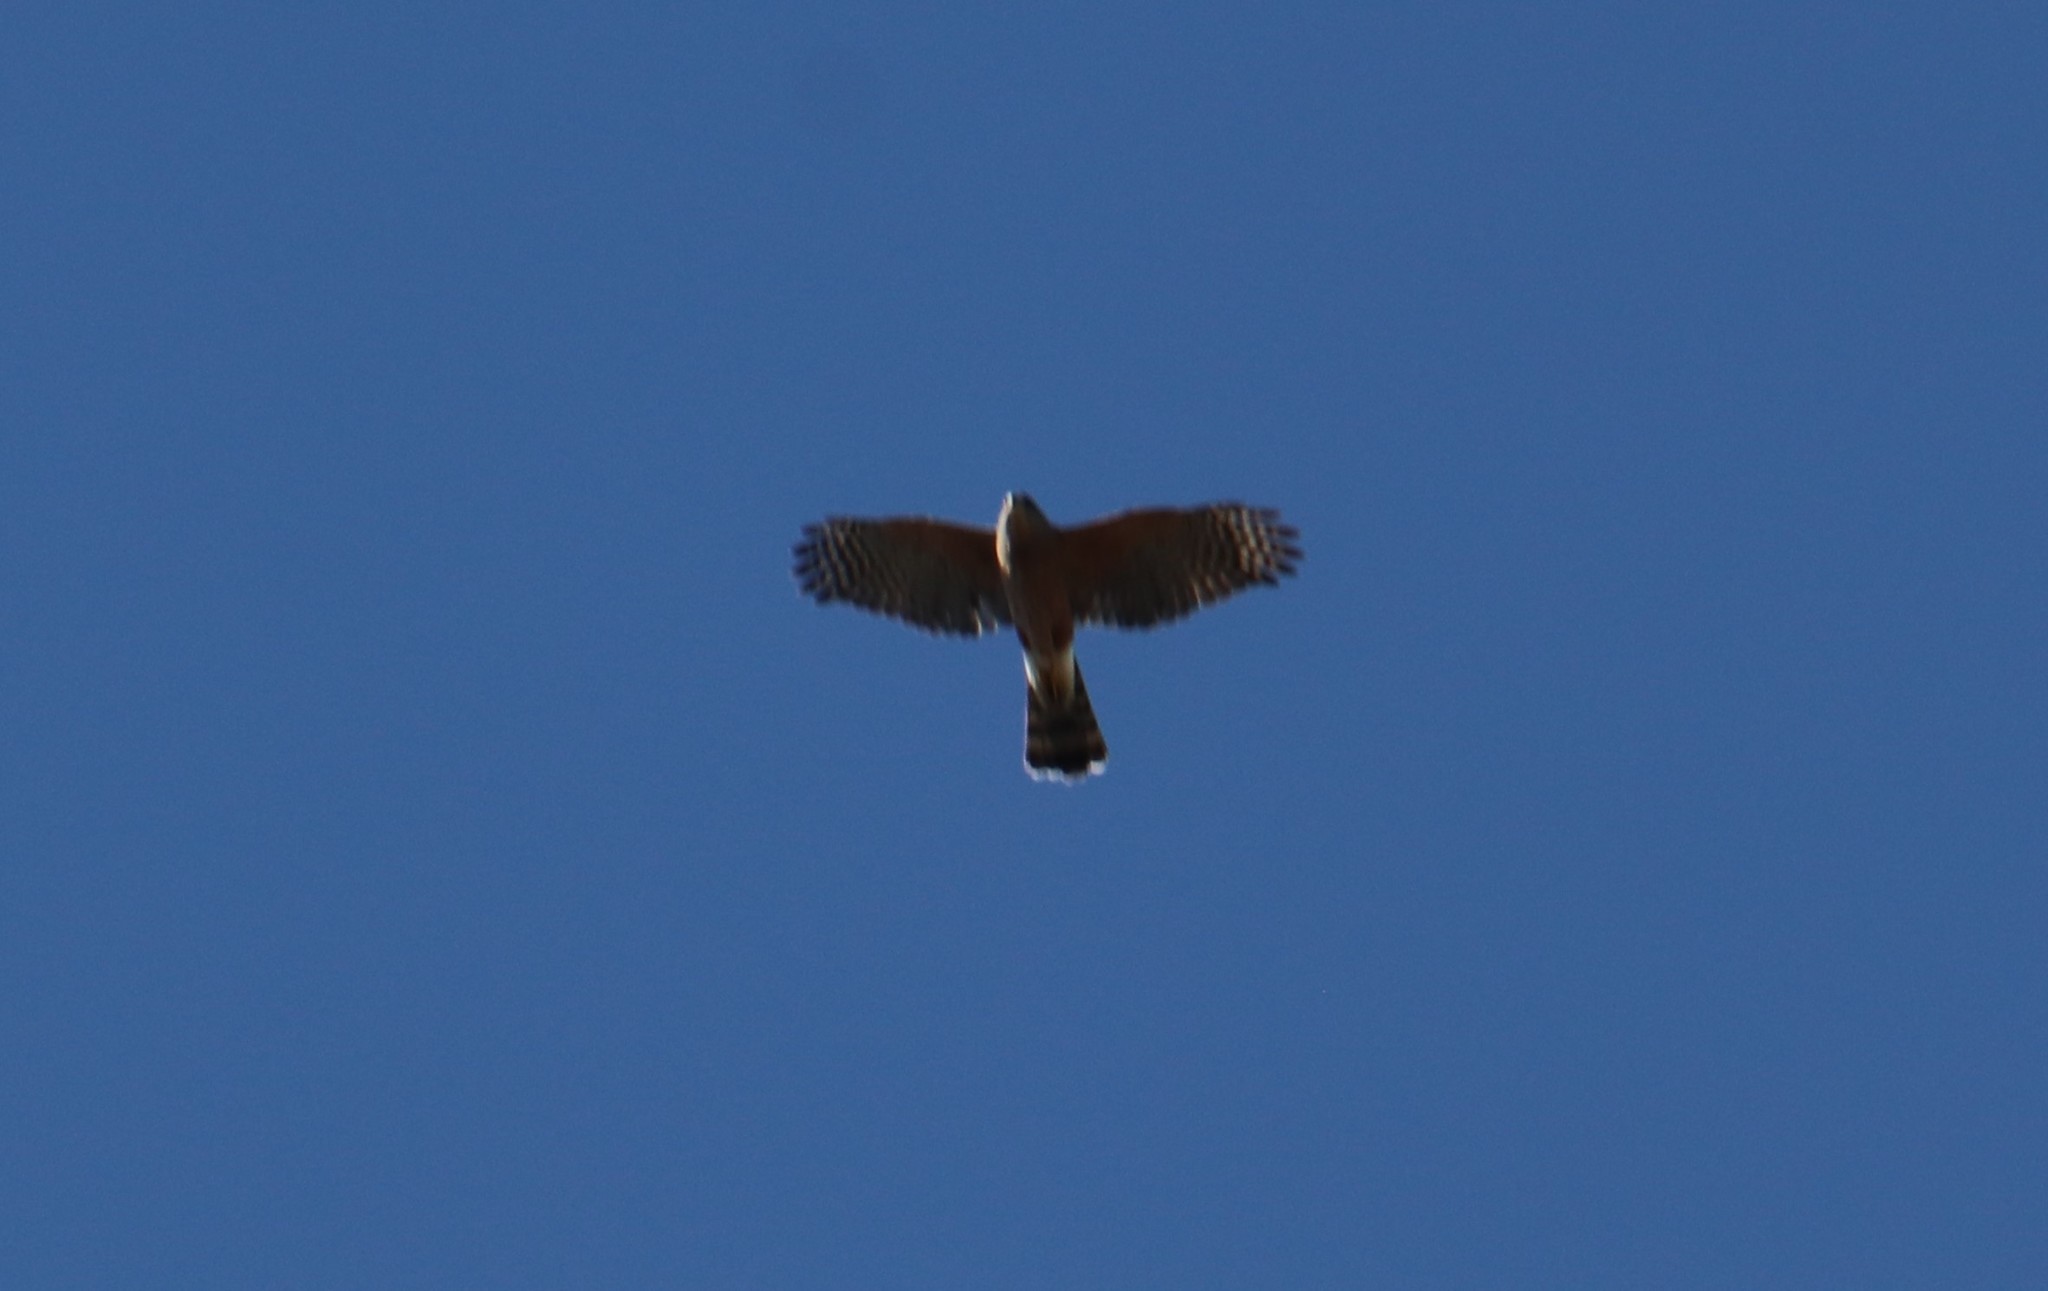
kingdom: Animalia
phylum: Chordata
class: Aves
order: Accipitriformes
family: Accipitridae
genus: Accipiter
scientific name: Accipiter cooperii
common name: Cooper's hawk
